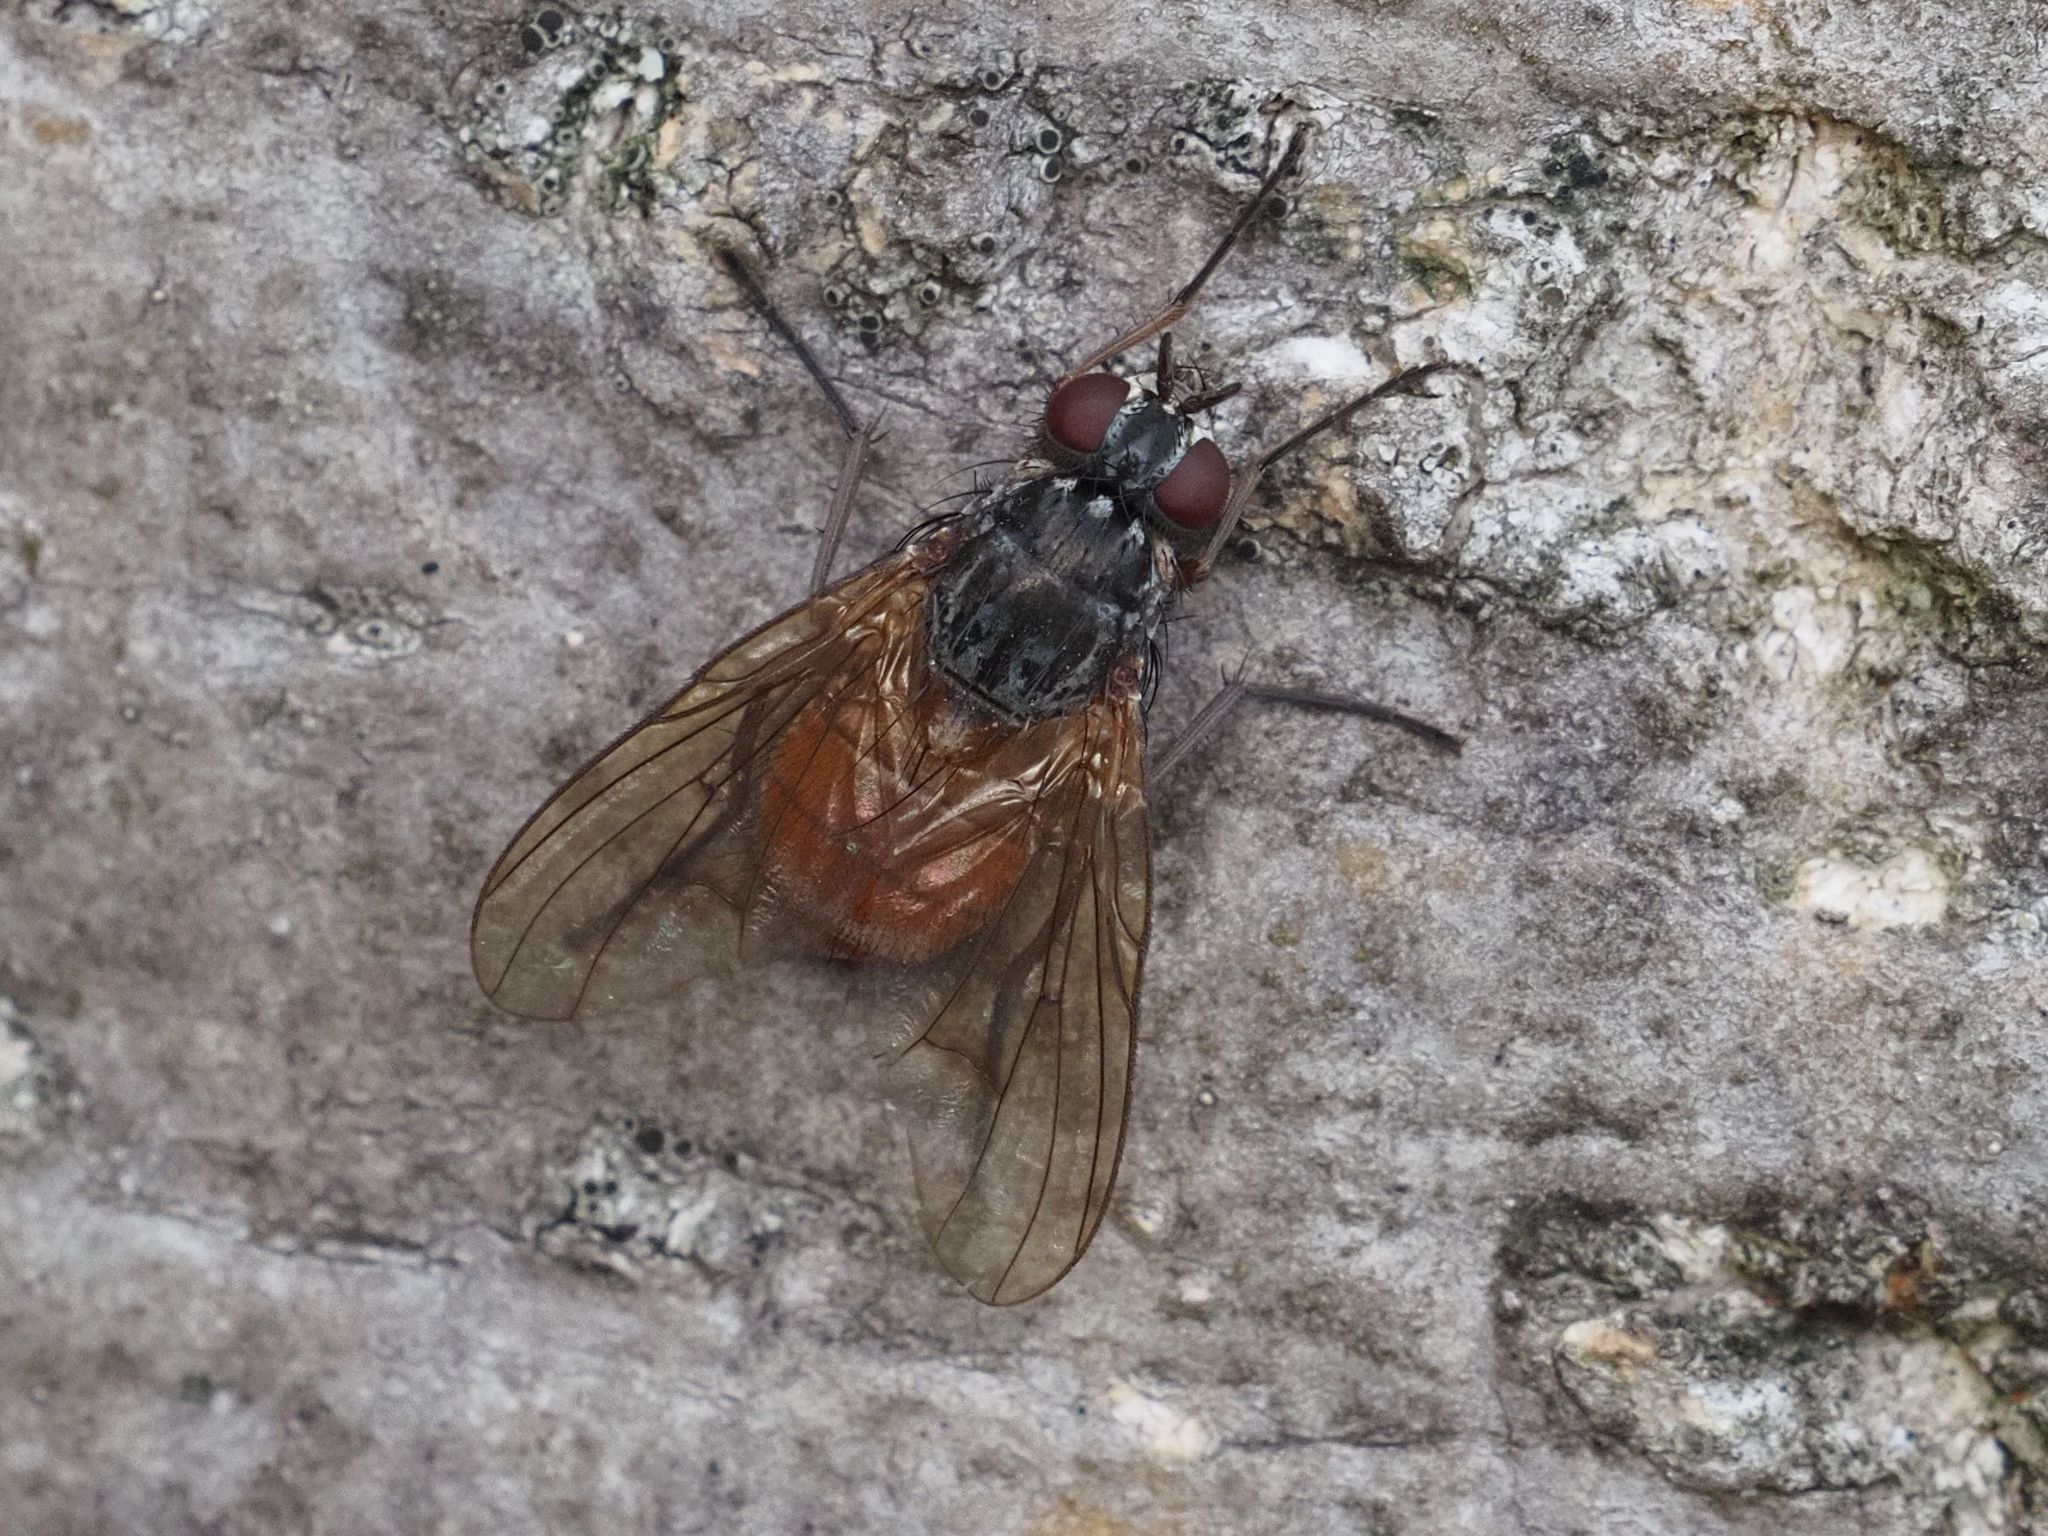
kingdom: Animalia
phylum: Arthropoda
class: Insecta
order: Diptera
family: Muscidae
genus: Phaonia
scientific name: Phaonia subventa
